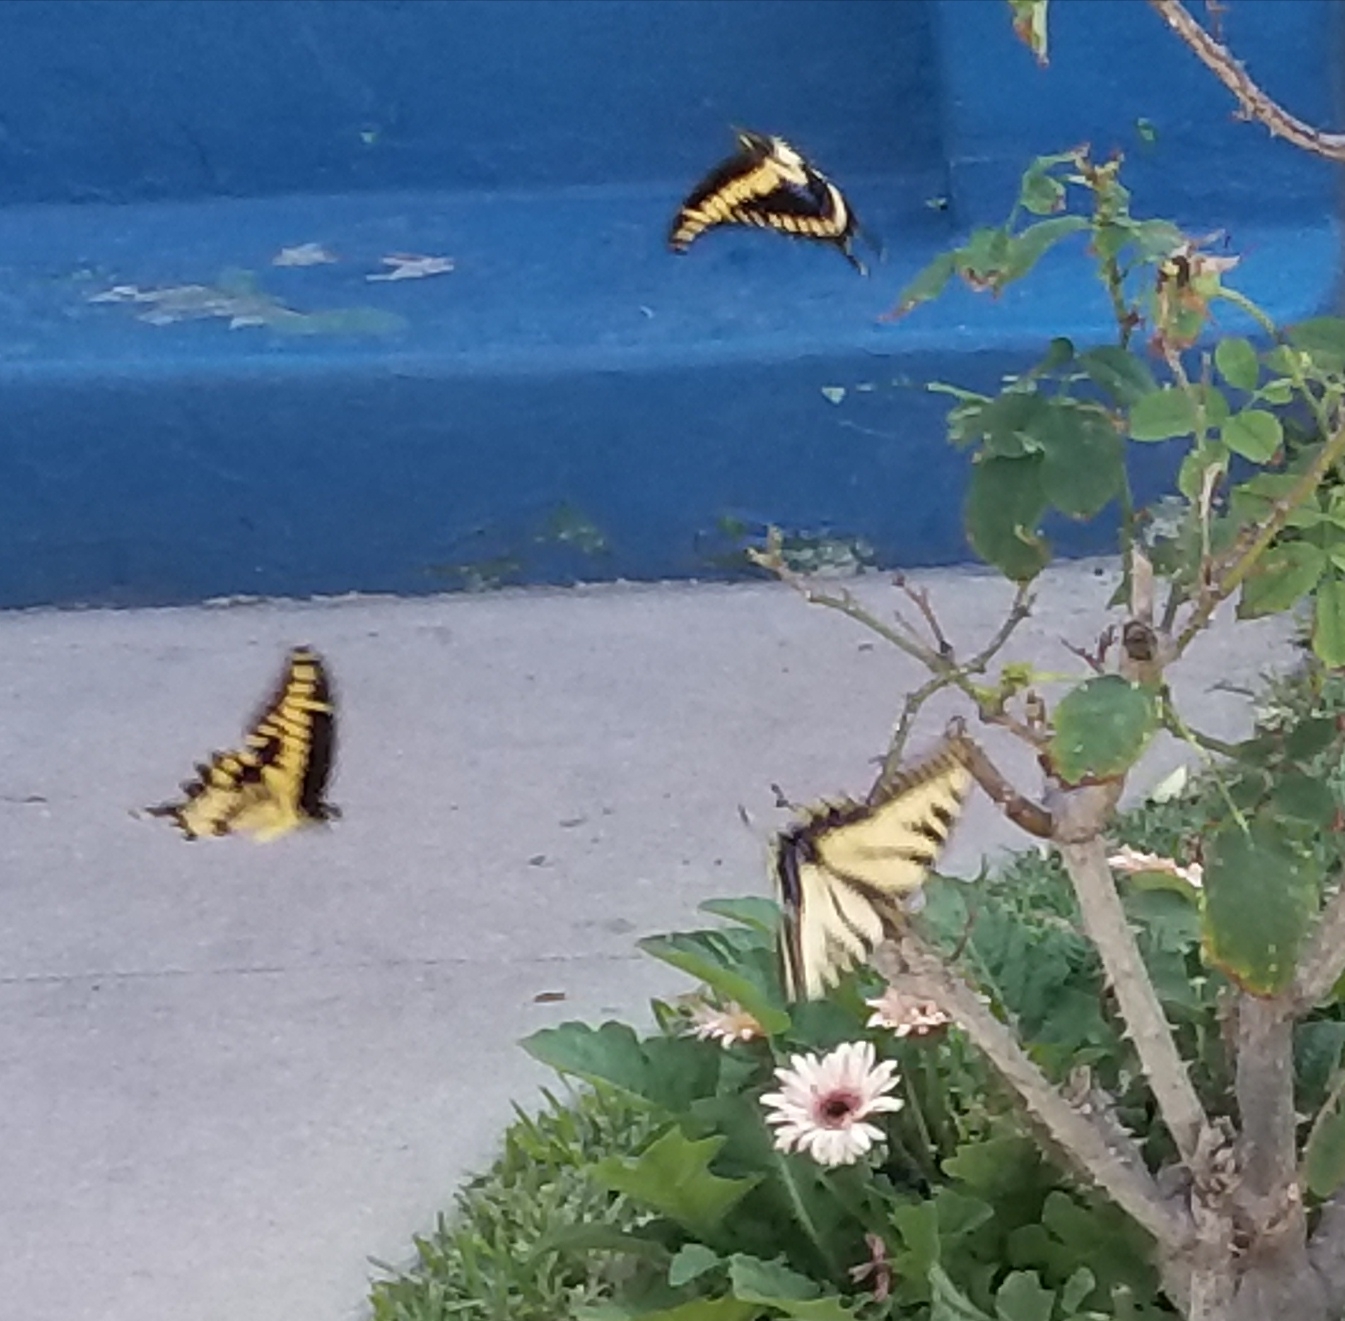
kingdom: Animalia
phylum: Arthropoda
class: Insecta
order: Lepidoptera
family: Papilionidae
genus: Papilio
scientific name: Papilio rutulus
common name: Western tiger swallowtail
